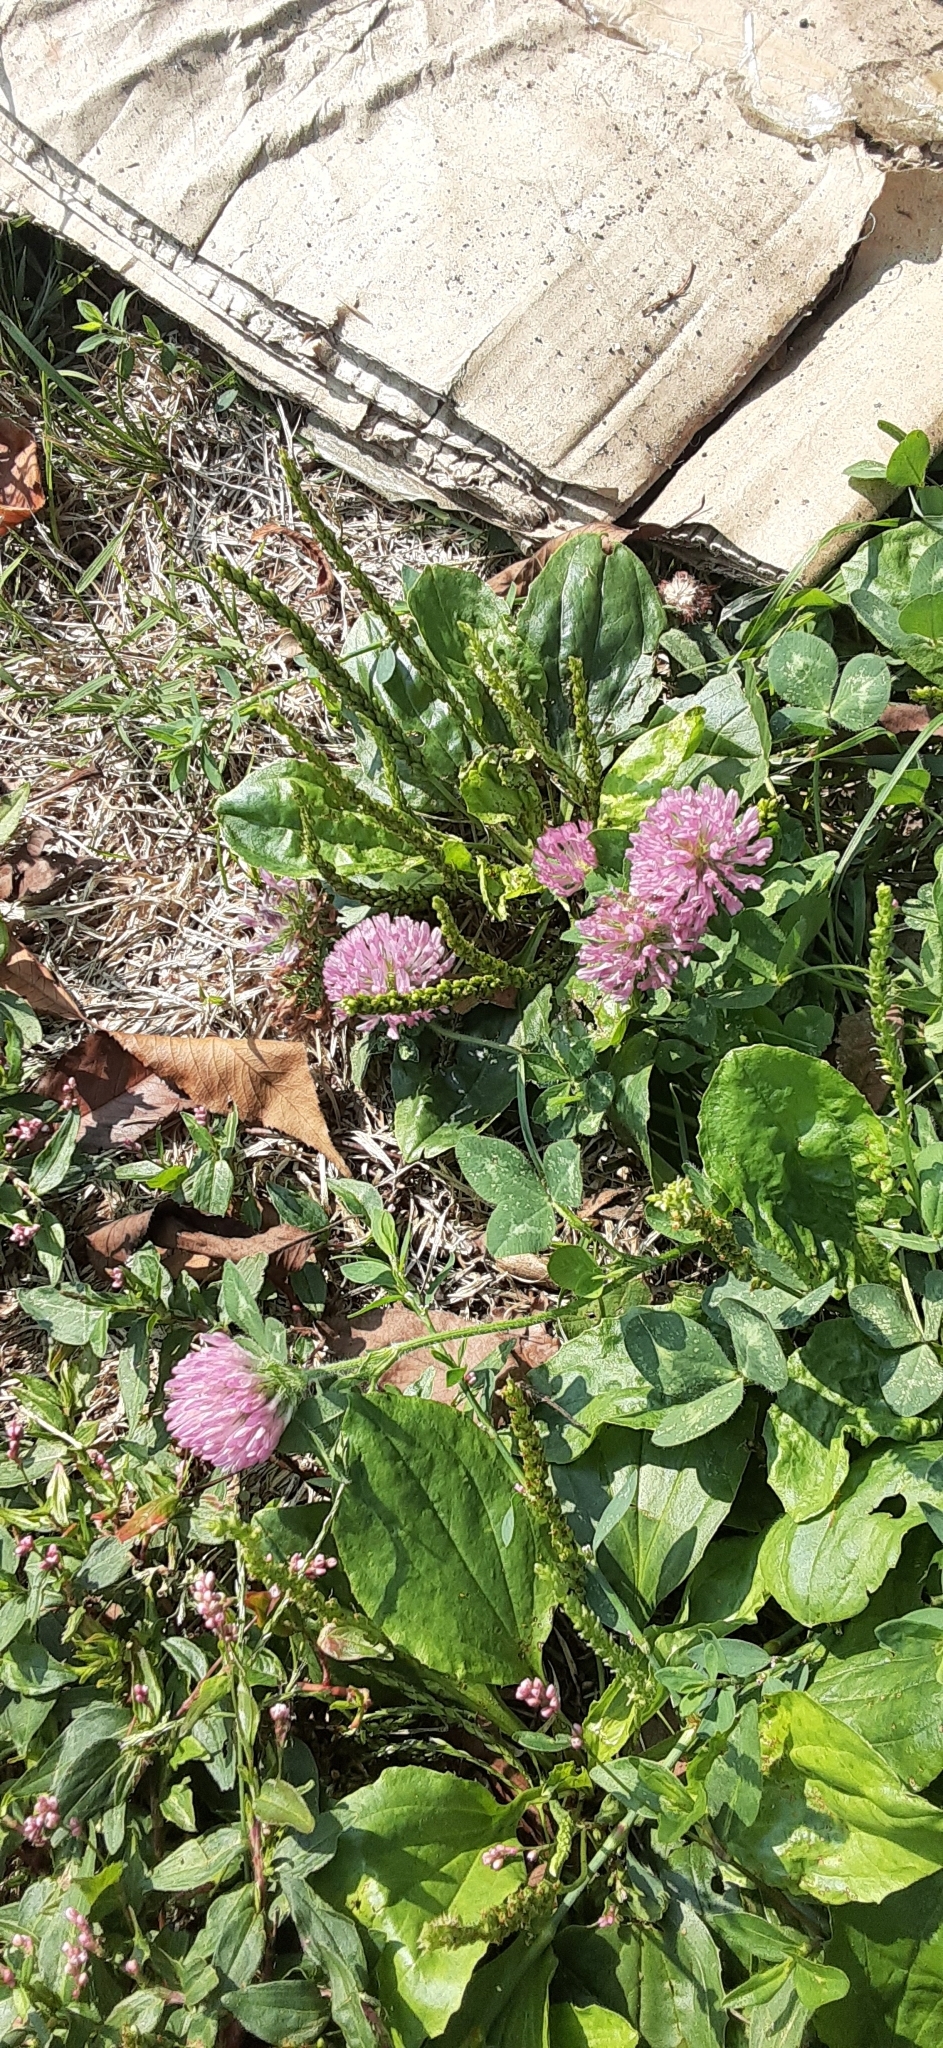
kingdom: Plantae
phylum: Tracheophyta
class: Magnoliopsida
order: Fabales
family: Fabaceae
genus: Trifolium
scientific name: Trifolium pratense
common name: Red clover
